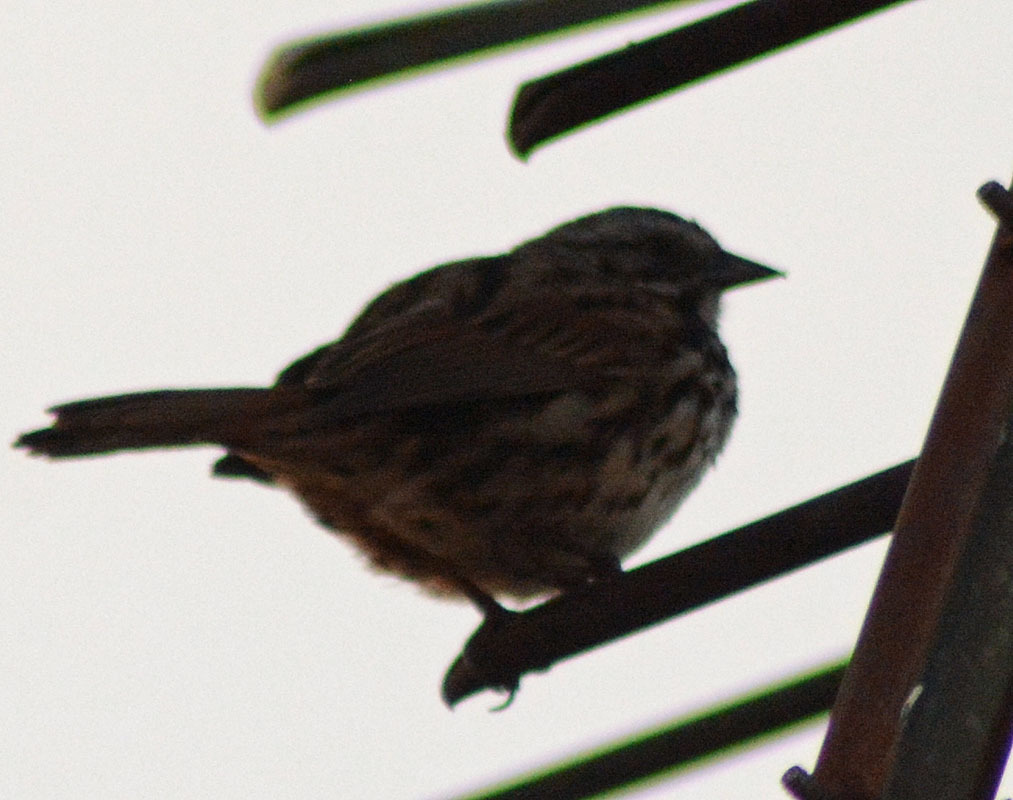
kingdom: Animalia
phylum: Chordata
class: Aves
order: Passeriformes
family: Passerellidae
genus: Melospiza
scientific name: Melospiza melodia
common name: Song sparrow
